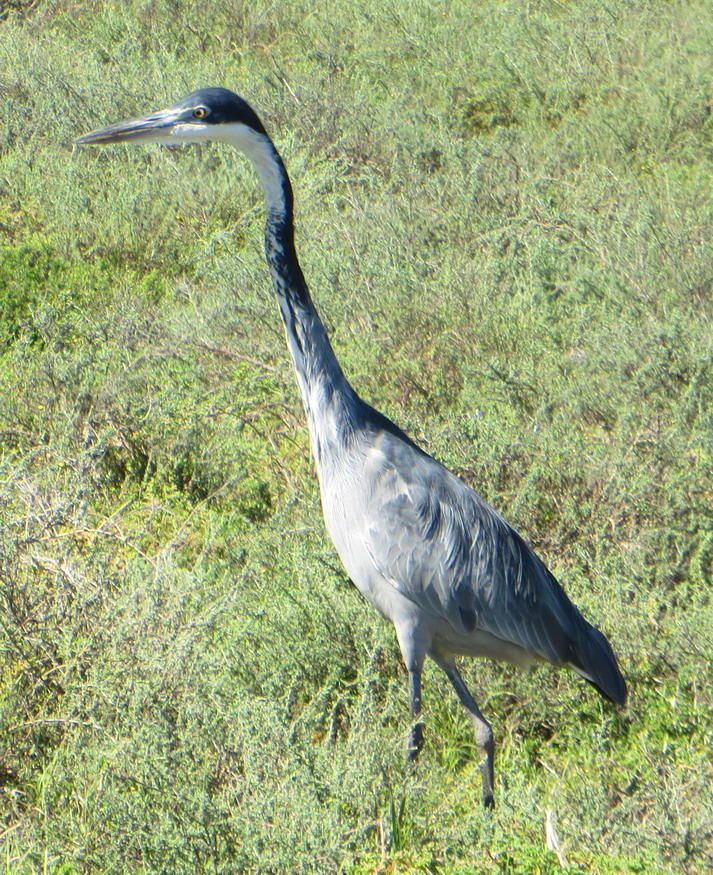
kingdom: Animalia
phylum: Chordata
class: Aves
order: Pelecaniformes
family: Ardeidae
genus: Ardea
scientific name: Ardea melanocephala
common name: Black-headed heron
